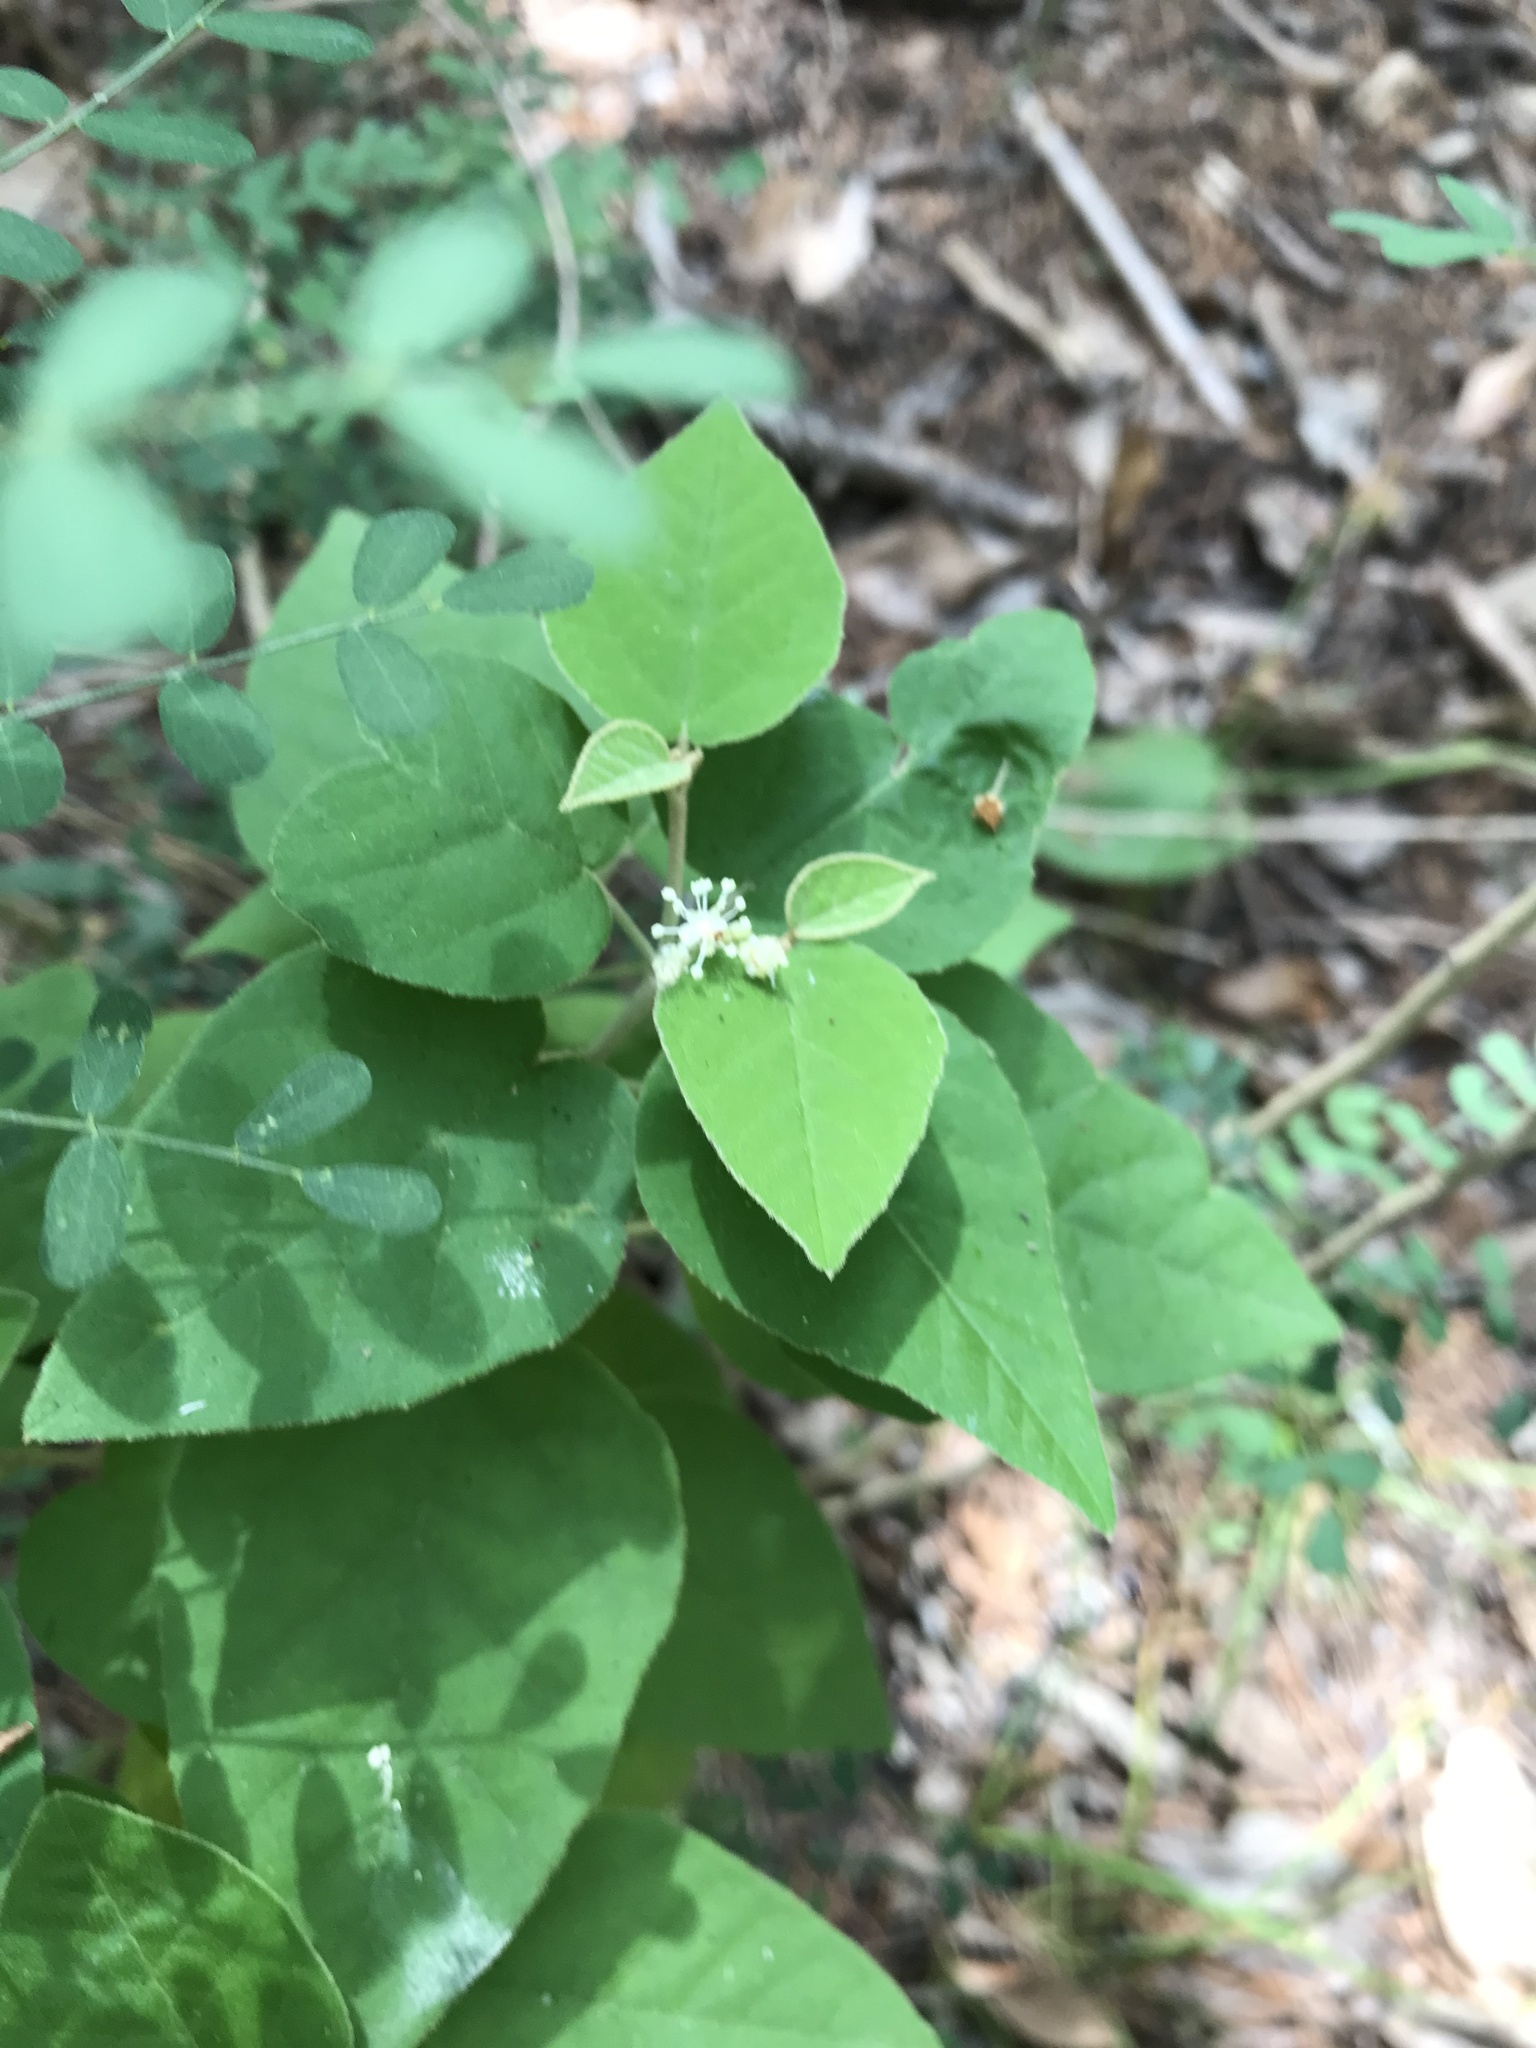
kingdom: Plantae
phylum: Tracheophyta
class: Magnoliopsida
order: Malpighiales
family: Euphorbiaceae
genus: Croton
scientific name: Croton fruticulosus
